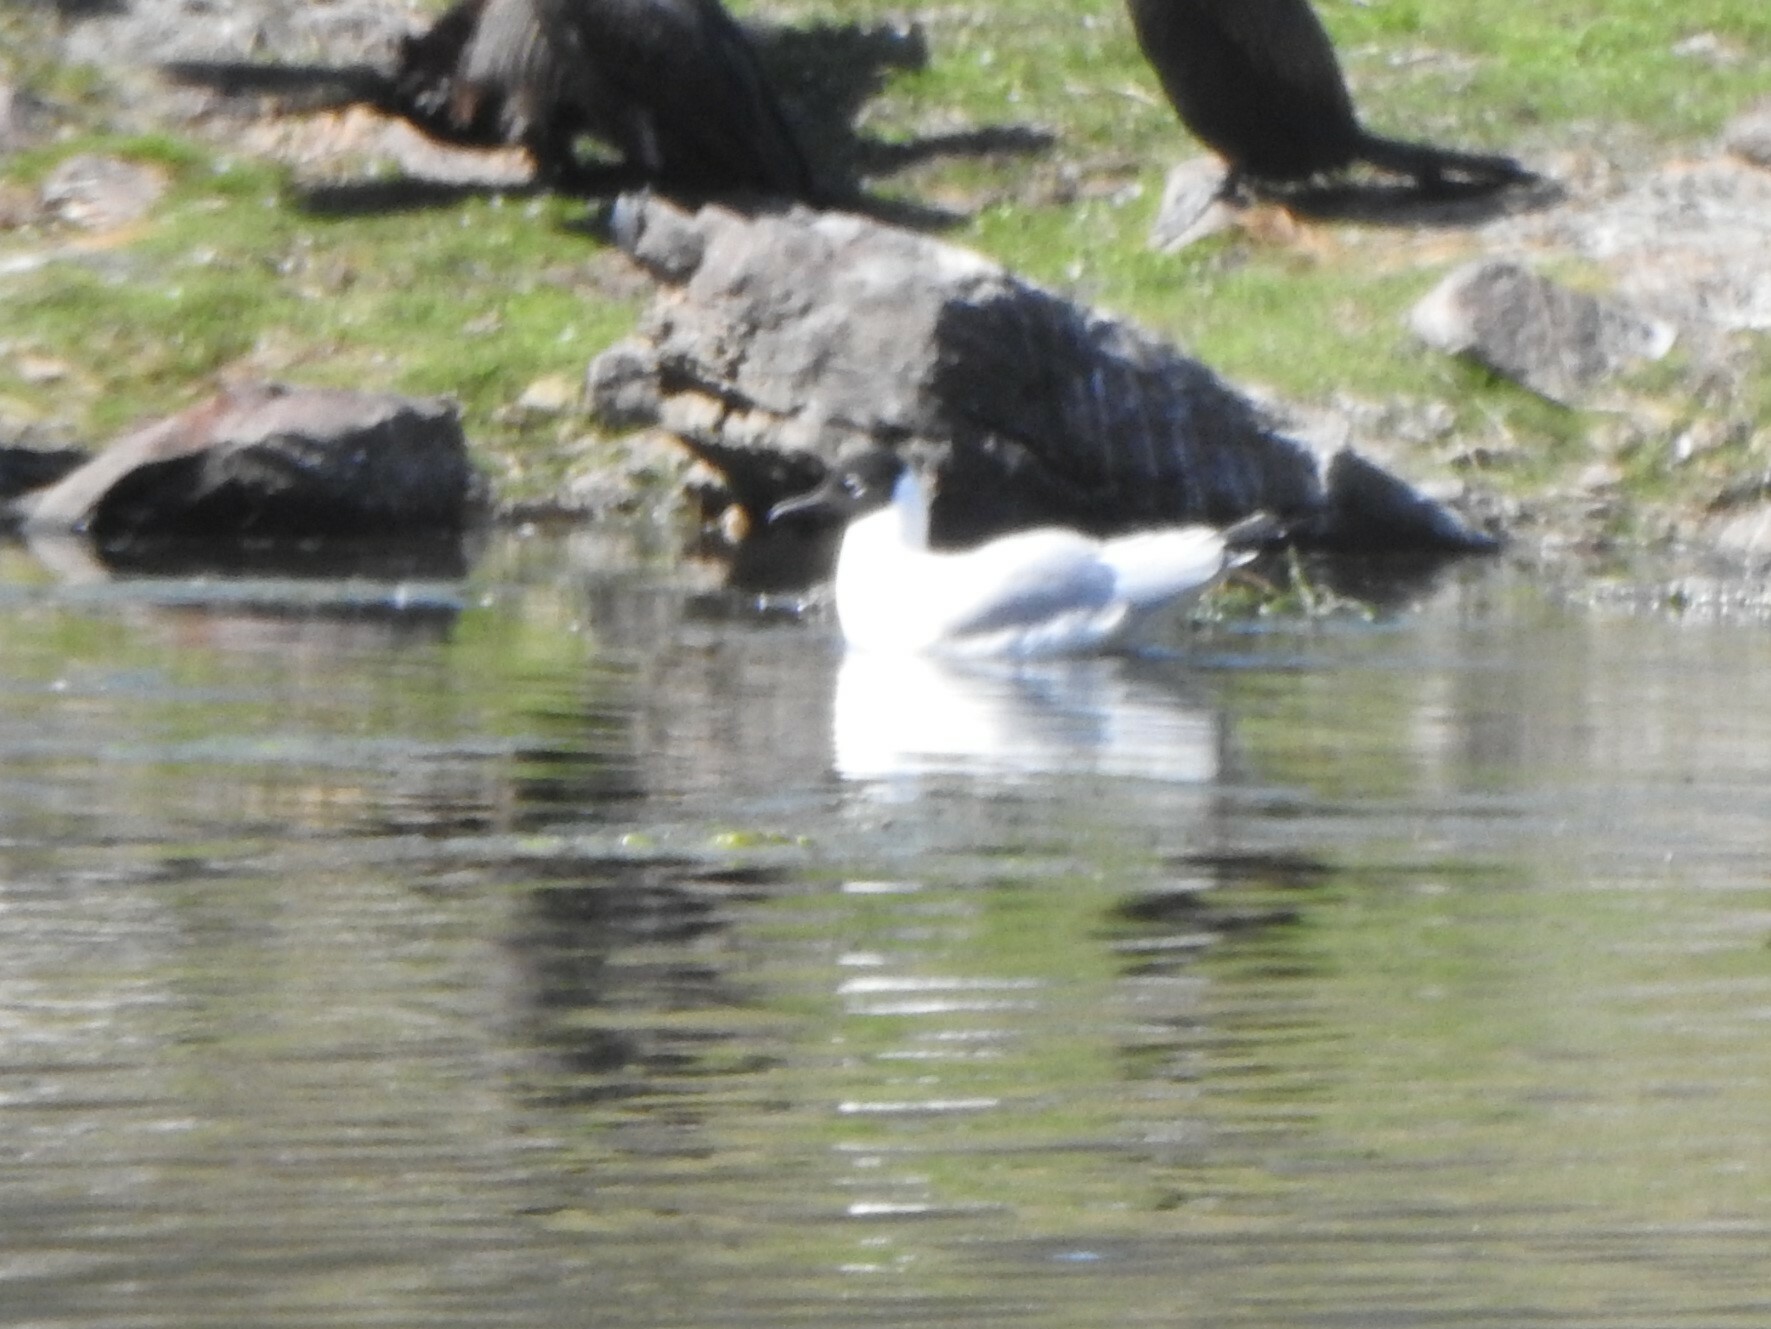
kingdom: Animalia
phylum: Chordata
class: Aves
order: Charadriiformes
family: Laridae
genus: Chroicocephalus
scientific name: Chroicocephalus serranus
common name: Andean gull
